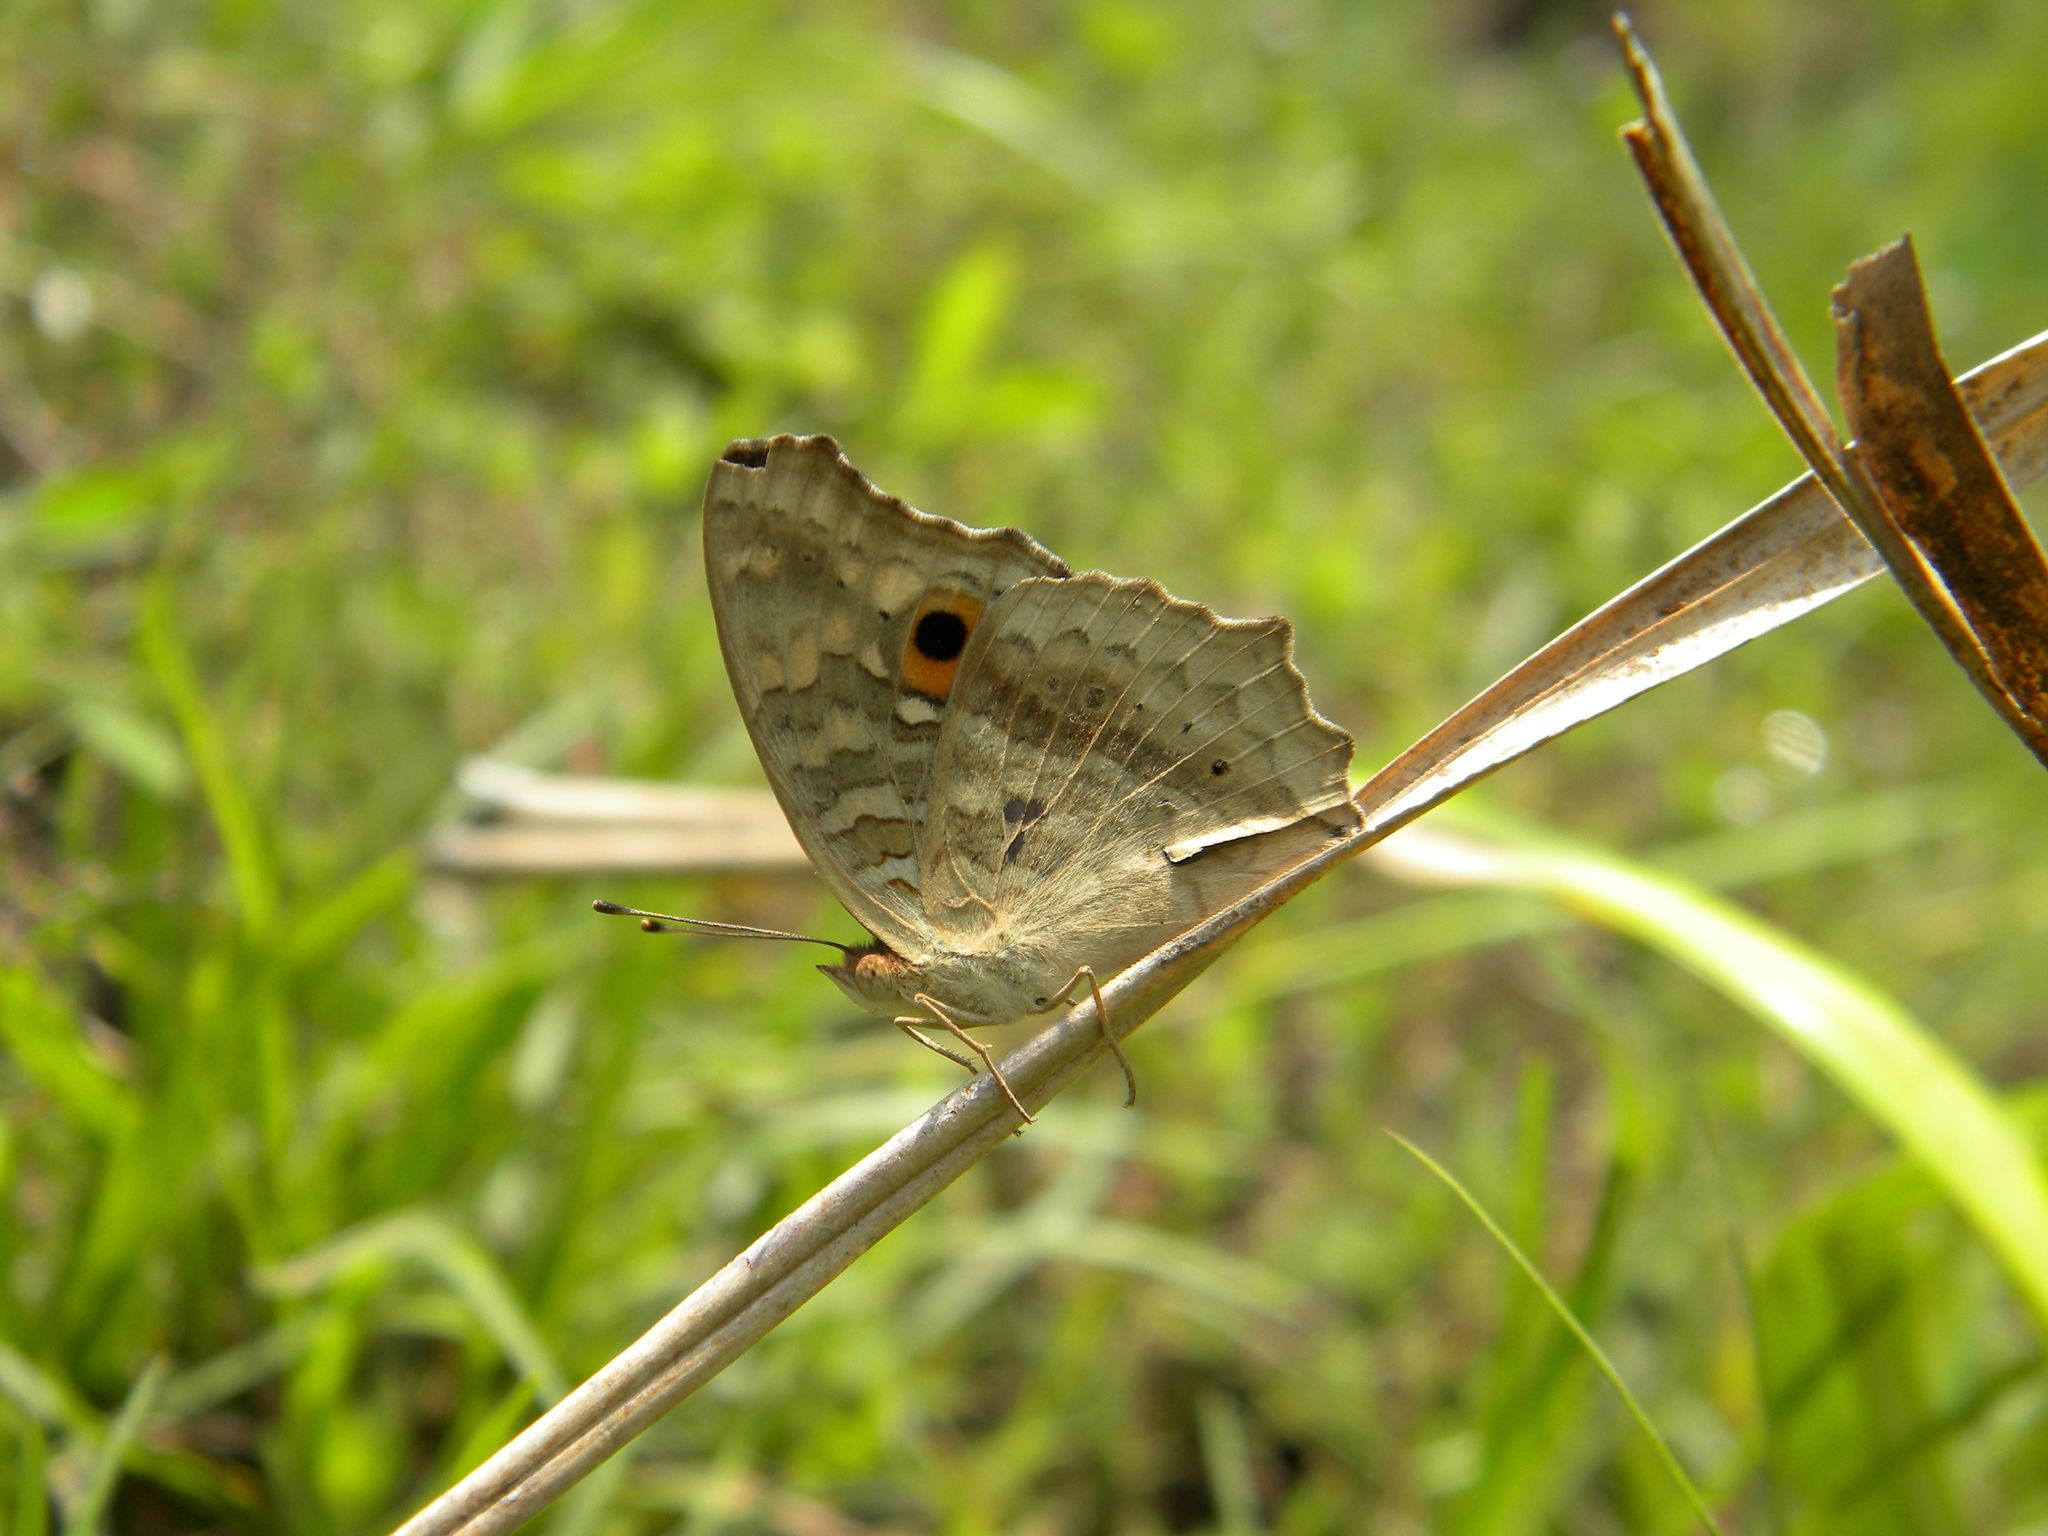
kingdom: Animalia
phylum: Arthropoda
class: Insecta
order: Lepidoptera
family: Nymphalidae
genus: Junonia
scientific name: Junonia lemonias
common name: Lemon pansy
